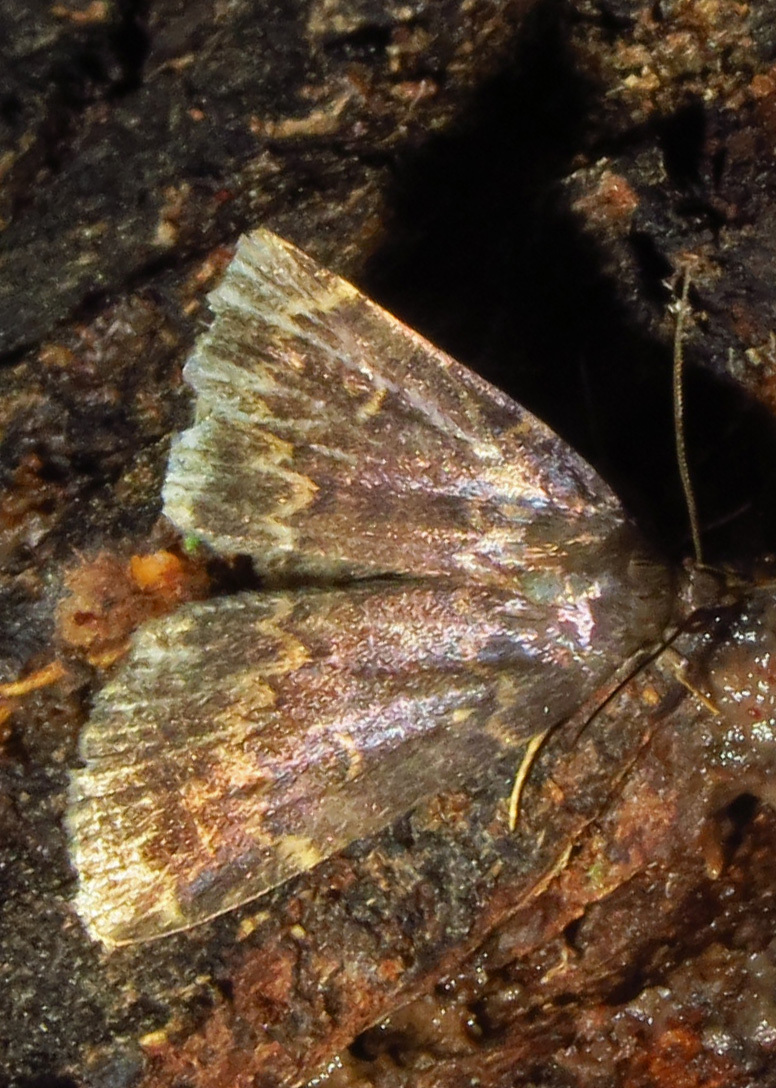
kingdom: Animalia
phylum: Arthropoda
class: Insecta
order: Lepidoptera
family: Erebidae
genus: Idia
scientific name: Idia lubricalis
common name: Twin-striped tabby
